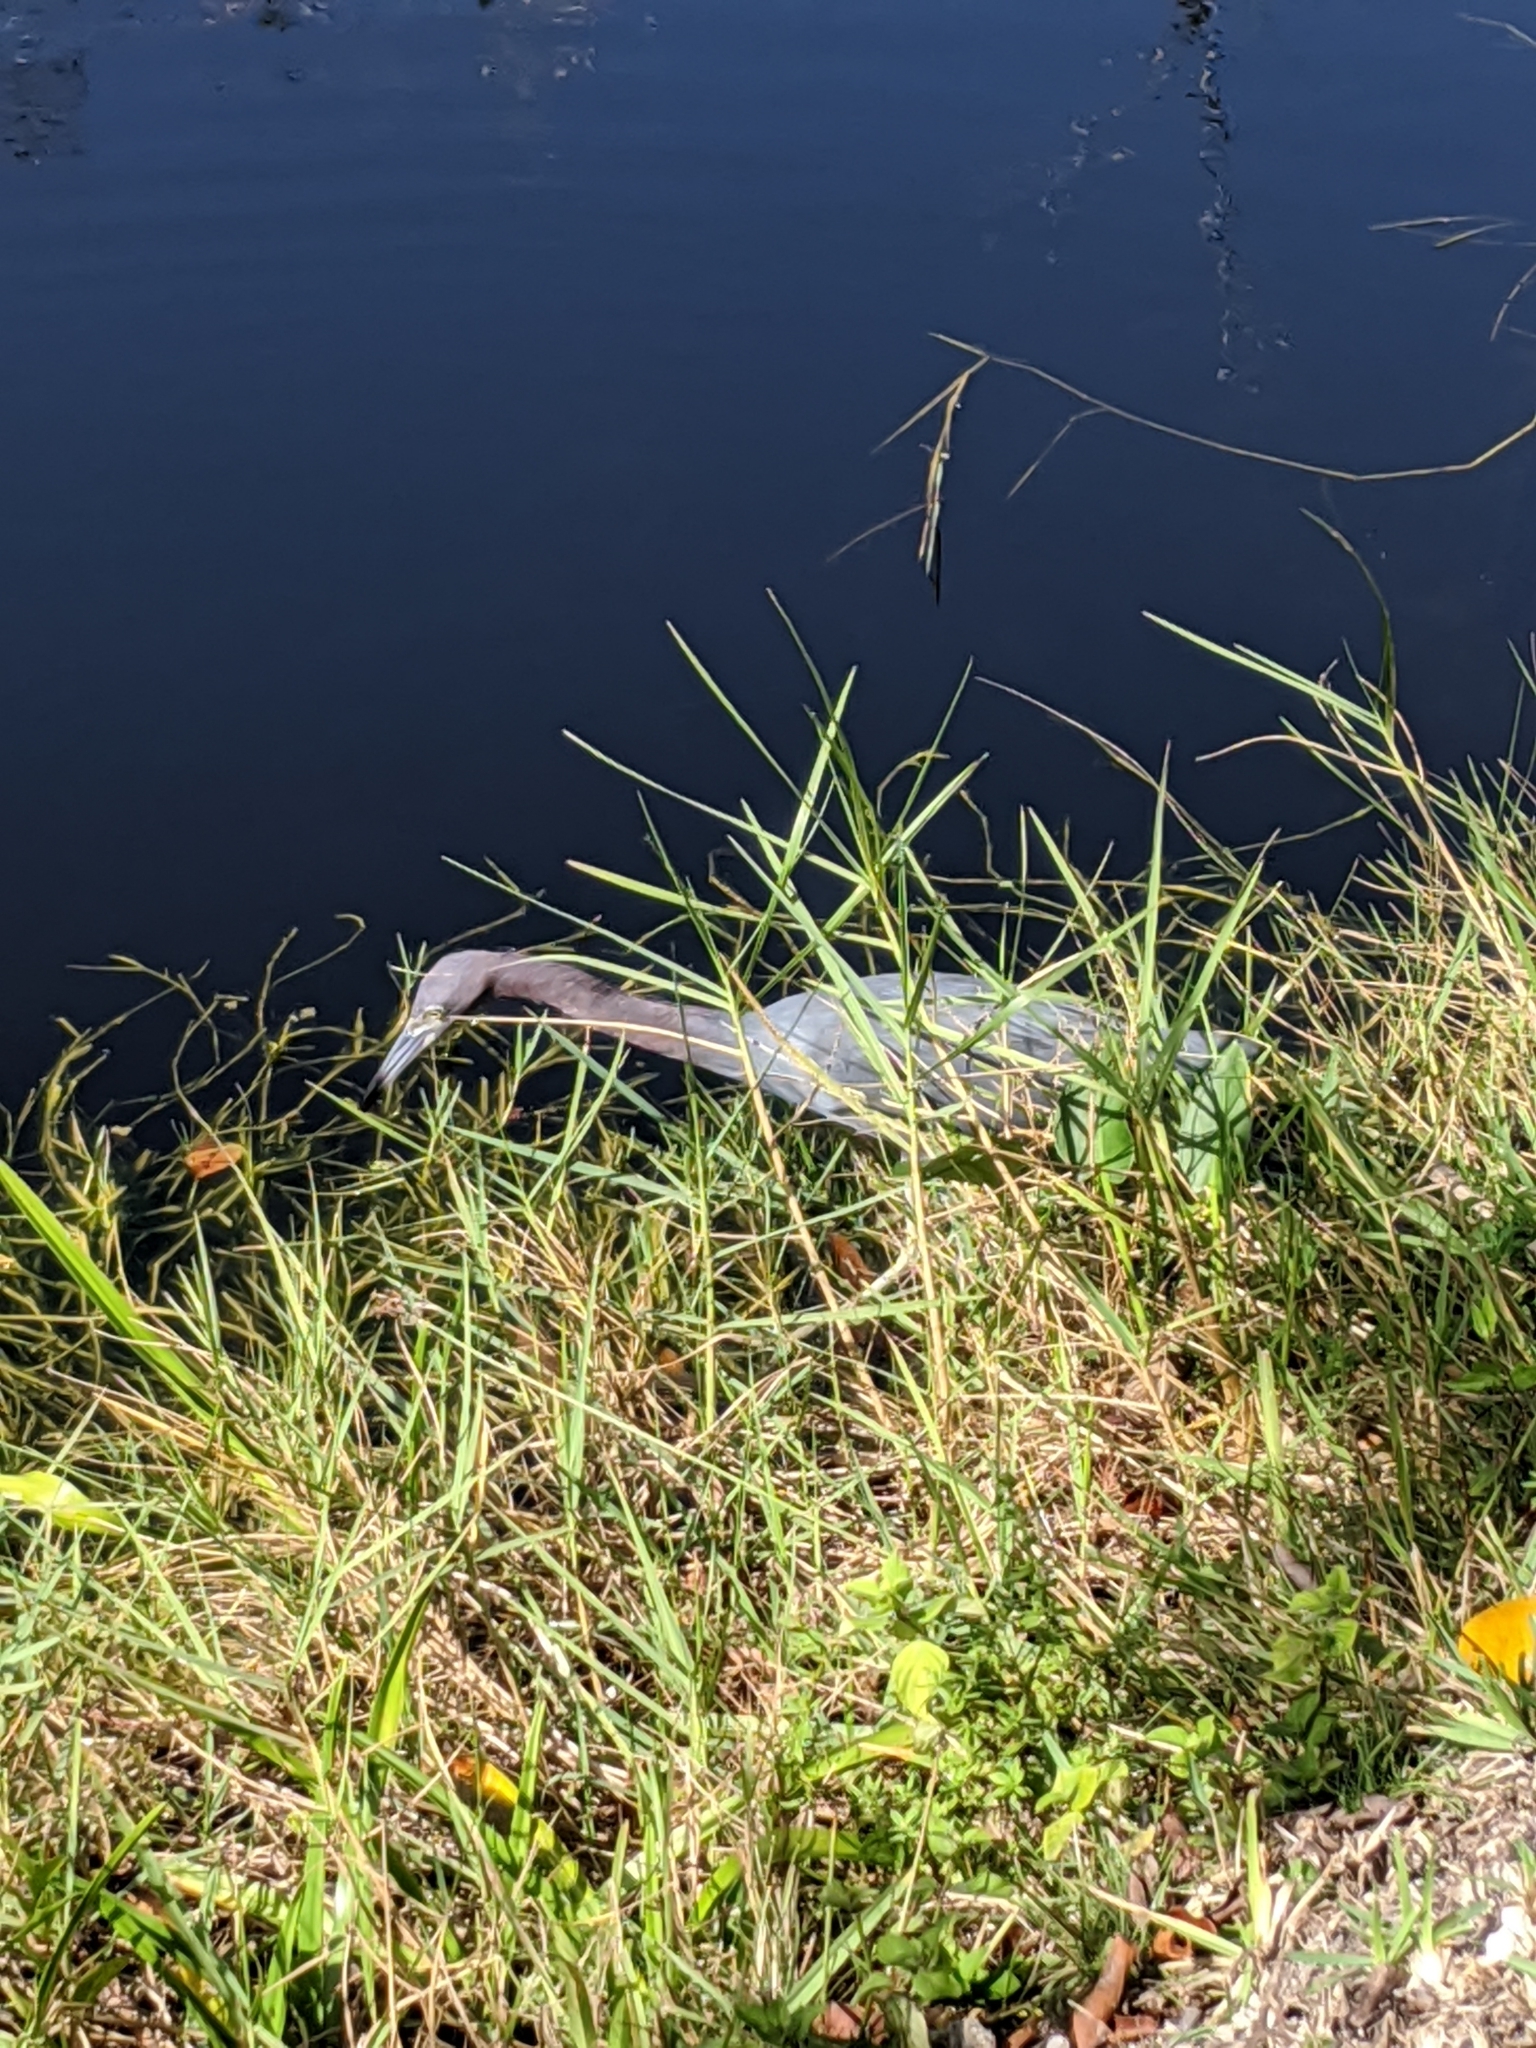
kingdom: Animalia
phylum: Chordata
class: Aves
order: Pelecaniformes
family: Ardeidae
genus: Egretta
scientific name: Egretta caerulea
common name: Little blue heron
